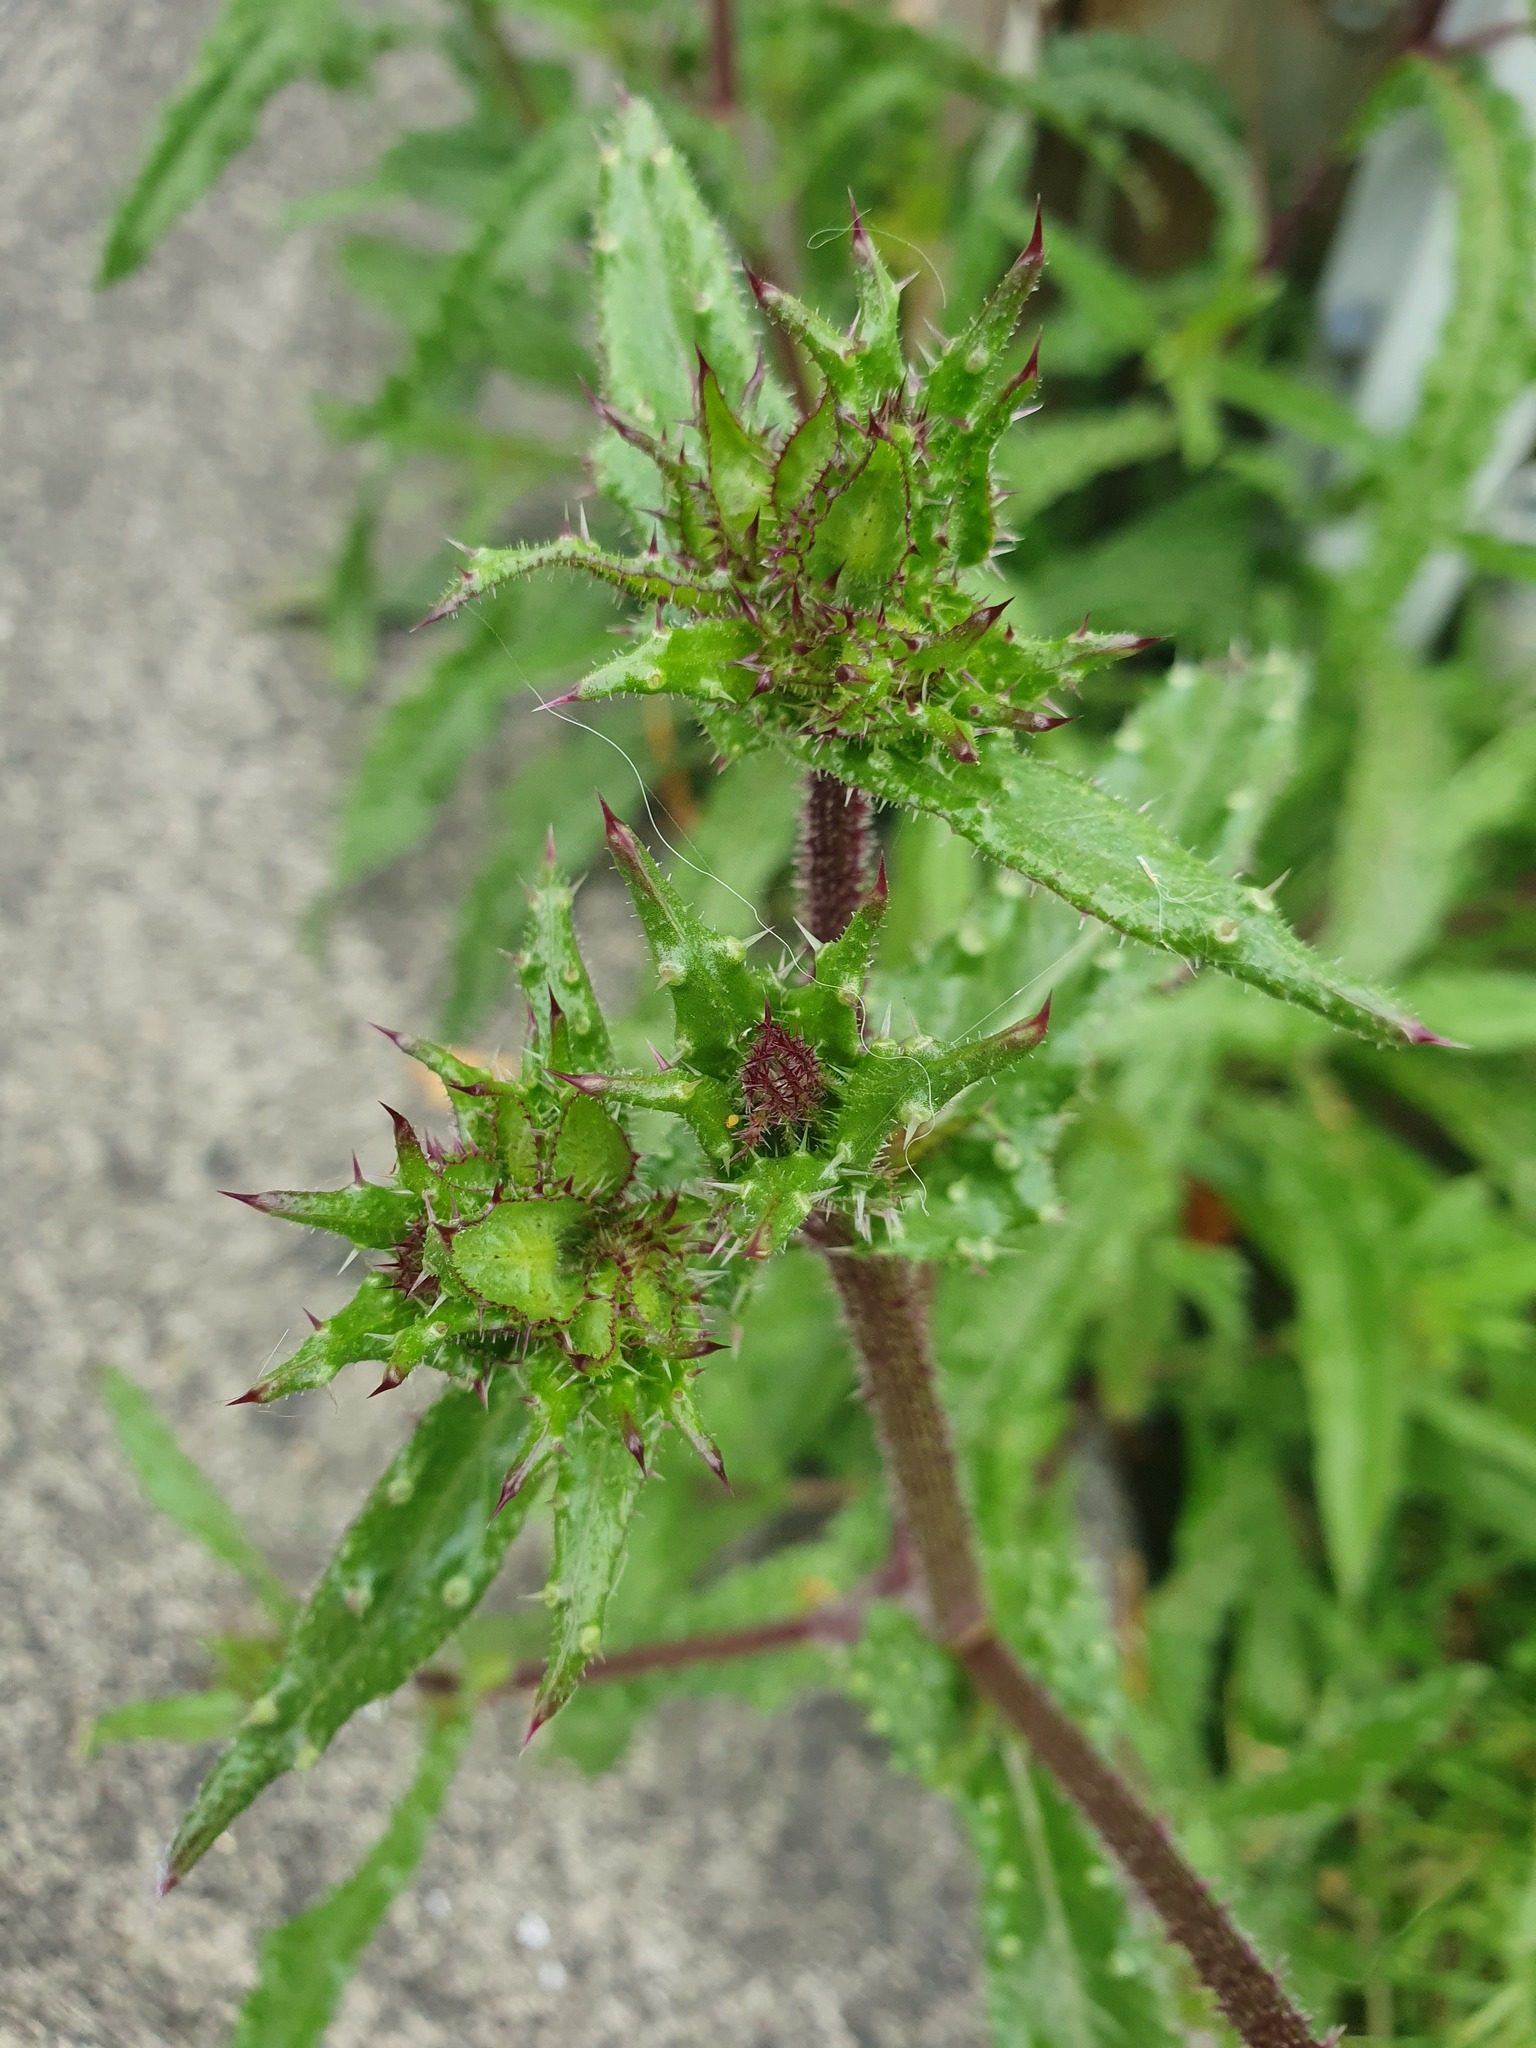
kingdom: Plantae
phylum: Tracheophyta
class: Magnoliopsida
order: Asterales
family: Asteraceae
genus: Helminthotheca
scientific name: Helminthotheca echioides
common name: Ox-tongue
